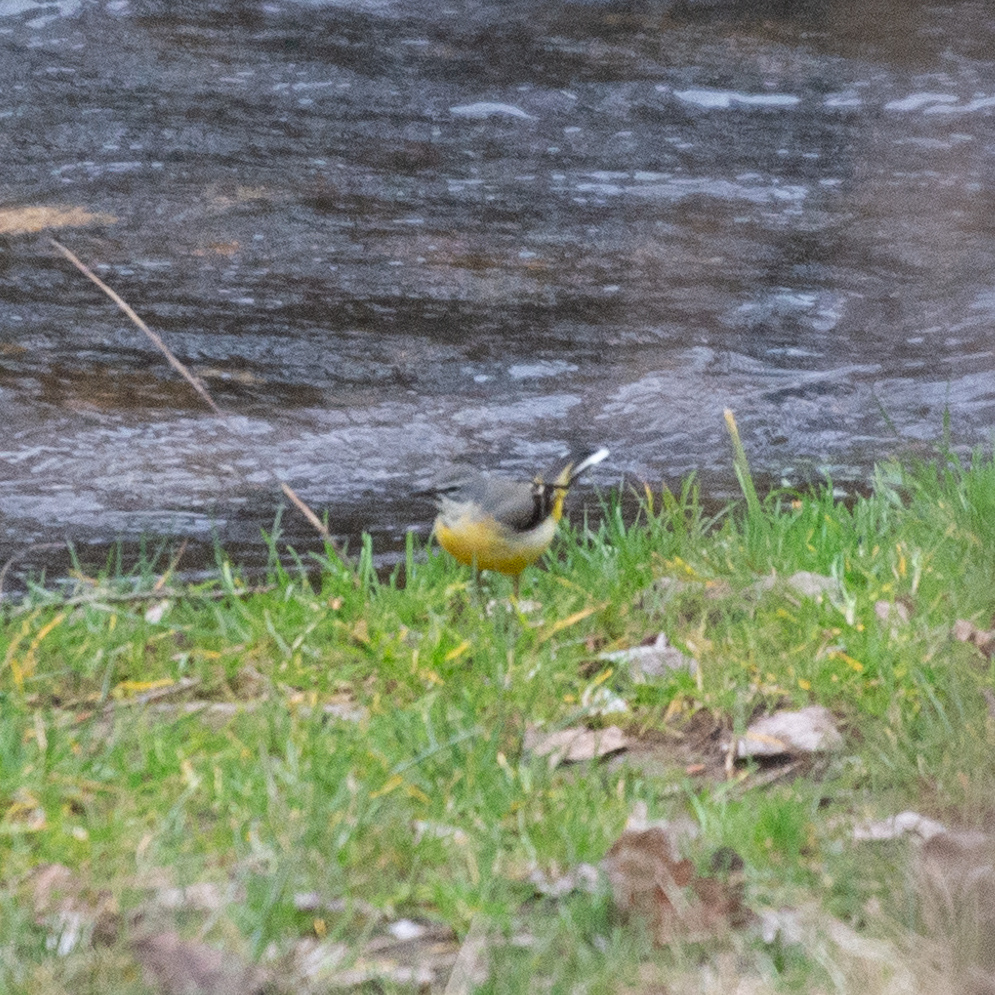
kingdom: Animalia
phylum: Chordata
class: Aves
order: Passeriformes
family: Motacillidae
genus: Motacilla
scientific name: Motacilla cinerea
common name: Grey wagtail
